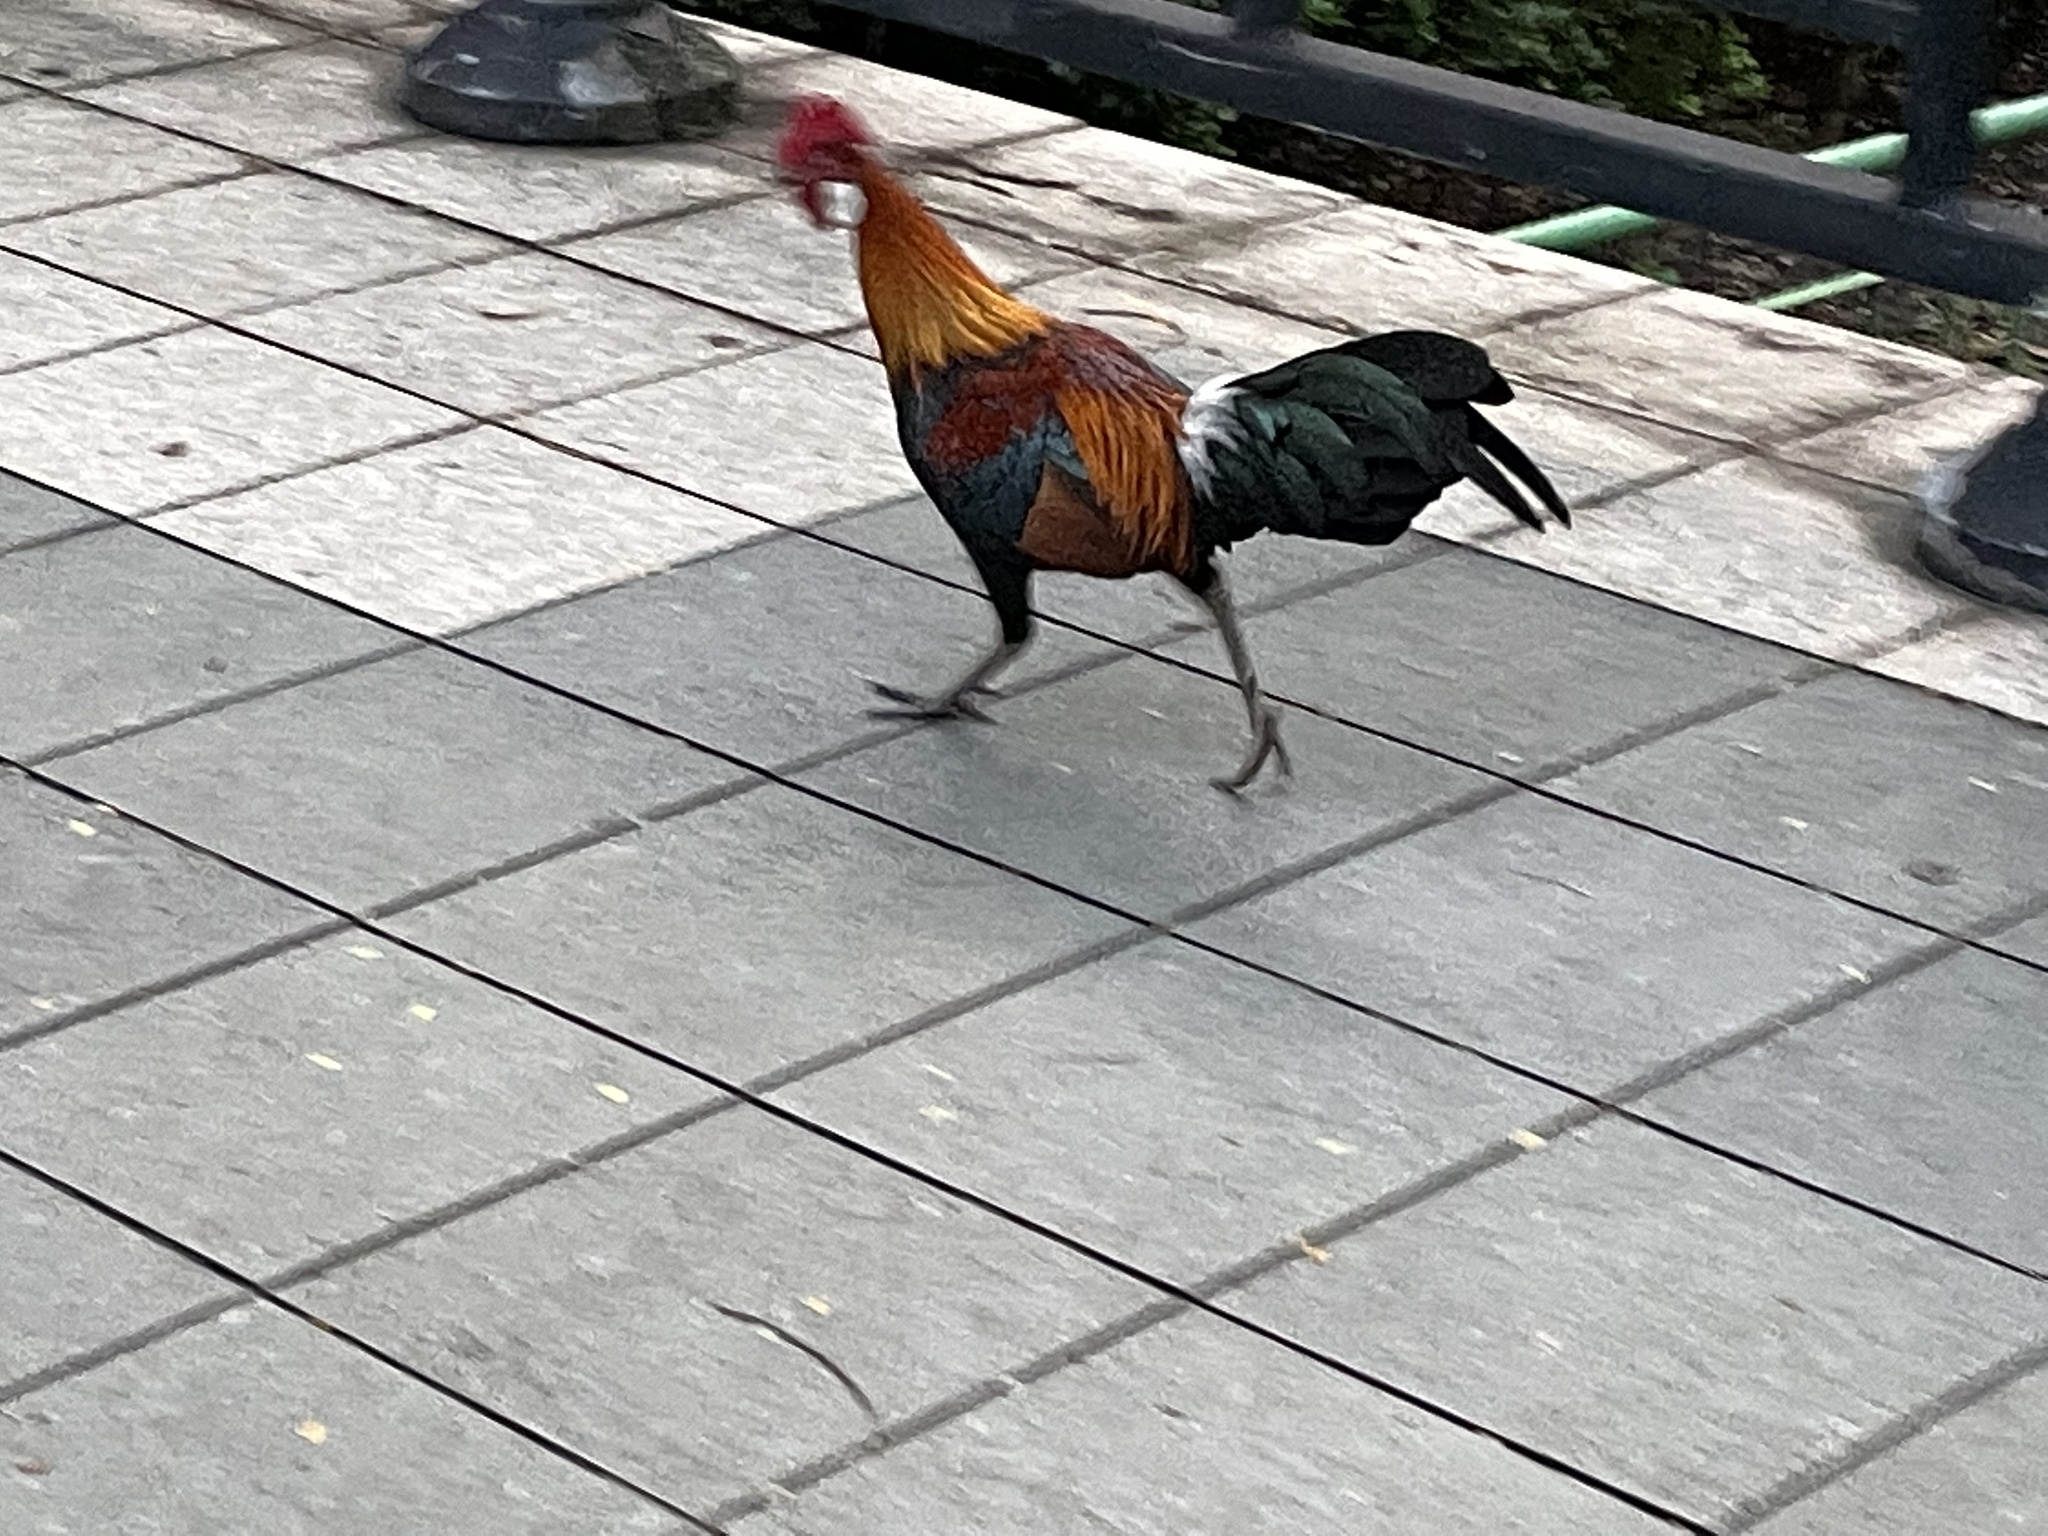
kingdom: Animalia
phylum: Chordata
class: Aves
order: Galliformes
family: Phasianidae
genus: Gallus
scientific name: Gallus gallus
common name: Red junglefowl
